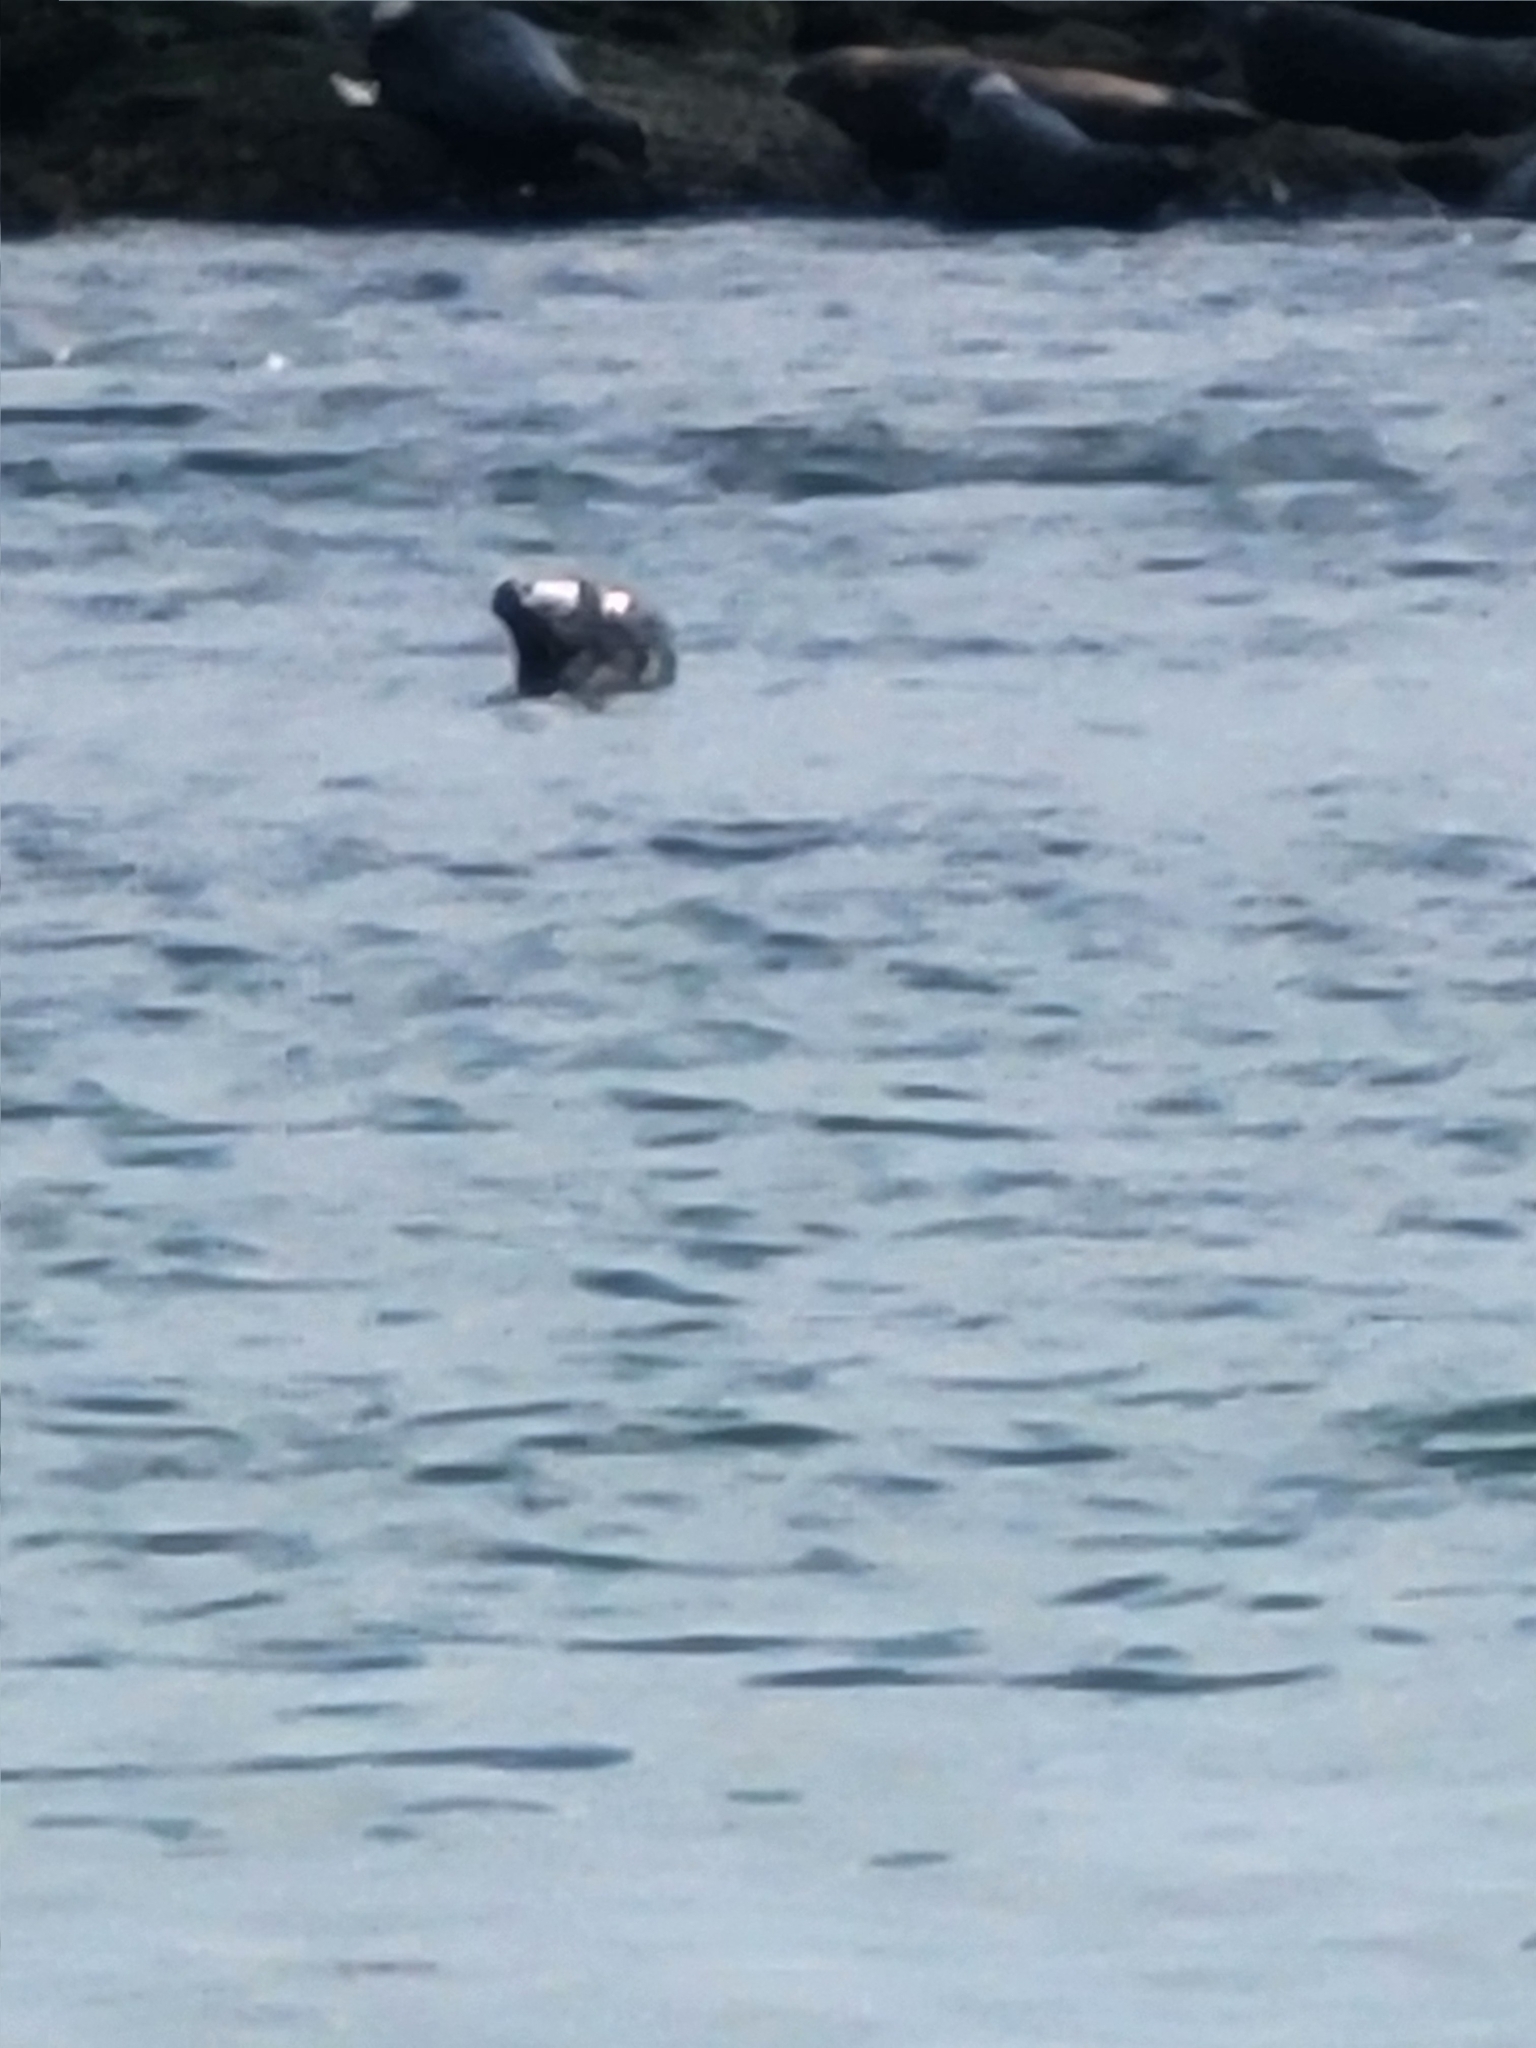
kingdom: Animalia
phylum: Chordata
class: Mammalia
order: Carnivora
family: Phocidae
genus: Halichoerus
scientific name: Halichoerus grypus
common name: Grey seal
